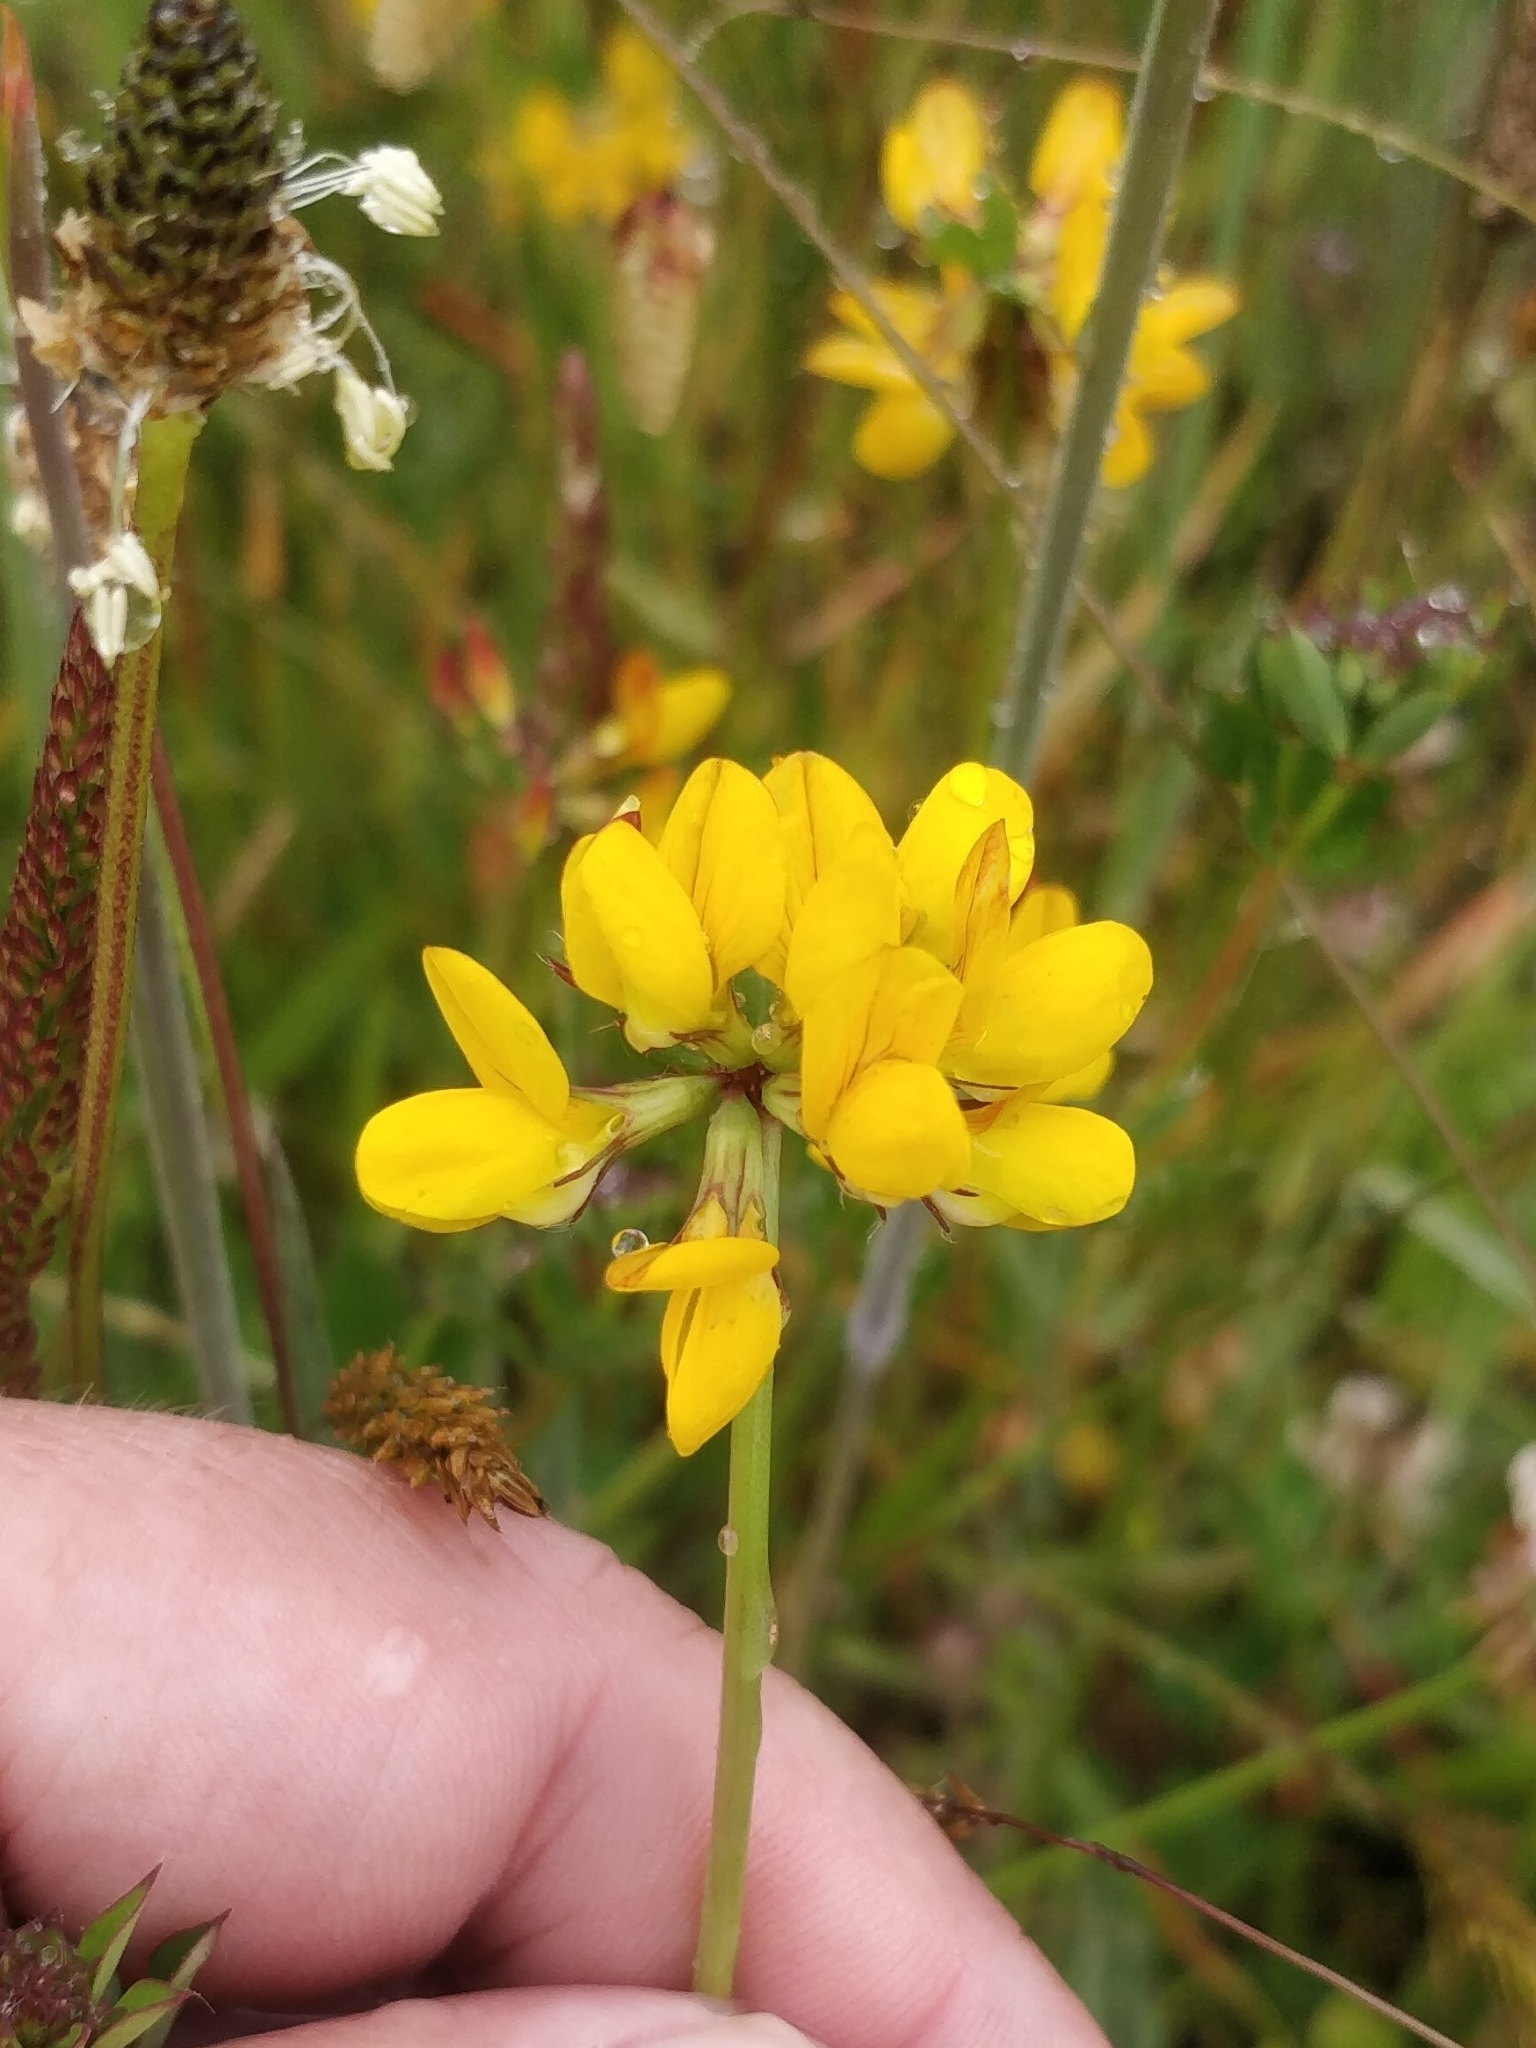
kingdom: Plantae
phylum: Tracheophyta
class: Magnoliopsida
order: Fabales
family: Fabaceae
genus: Lotus
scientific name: Lotus pedunculatus
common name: Greater birdsfoot-trefoil
